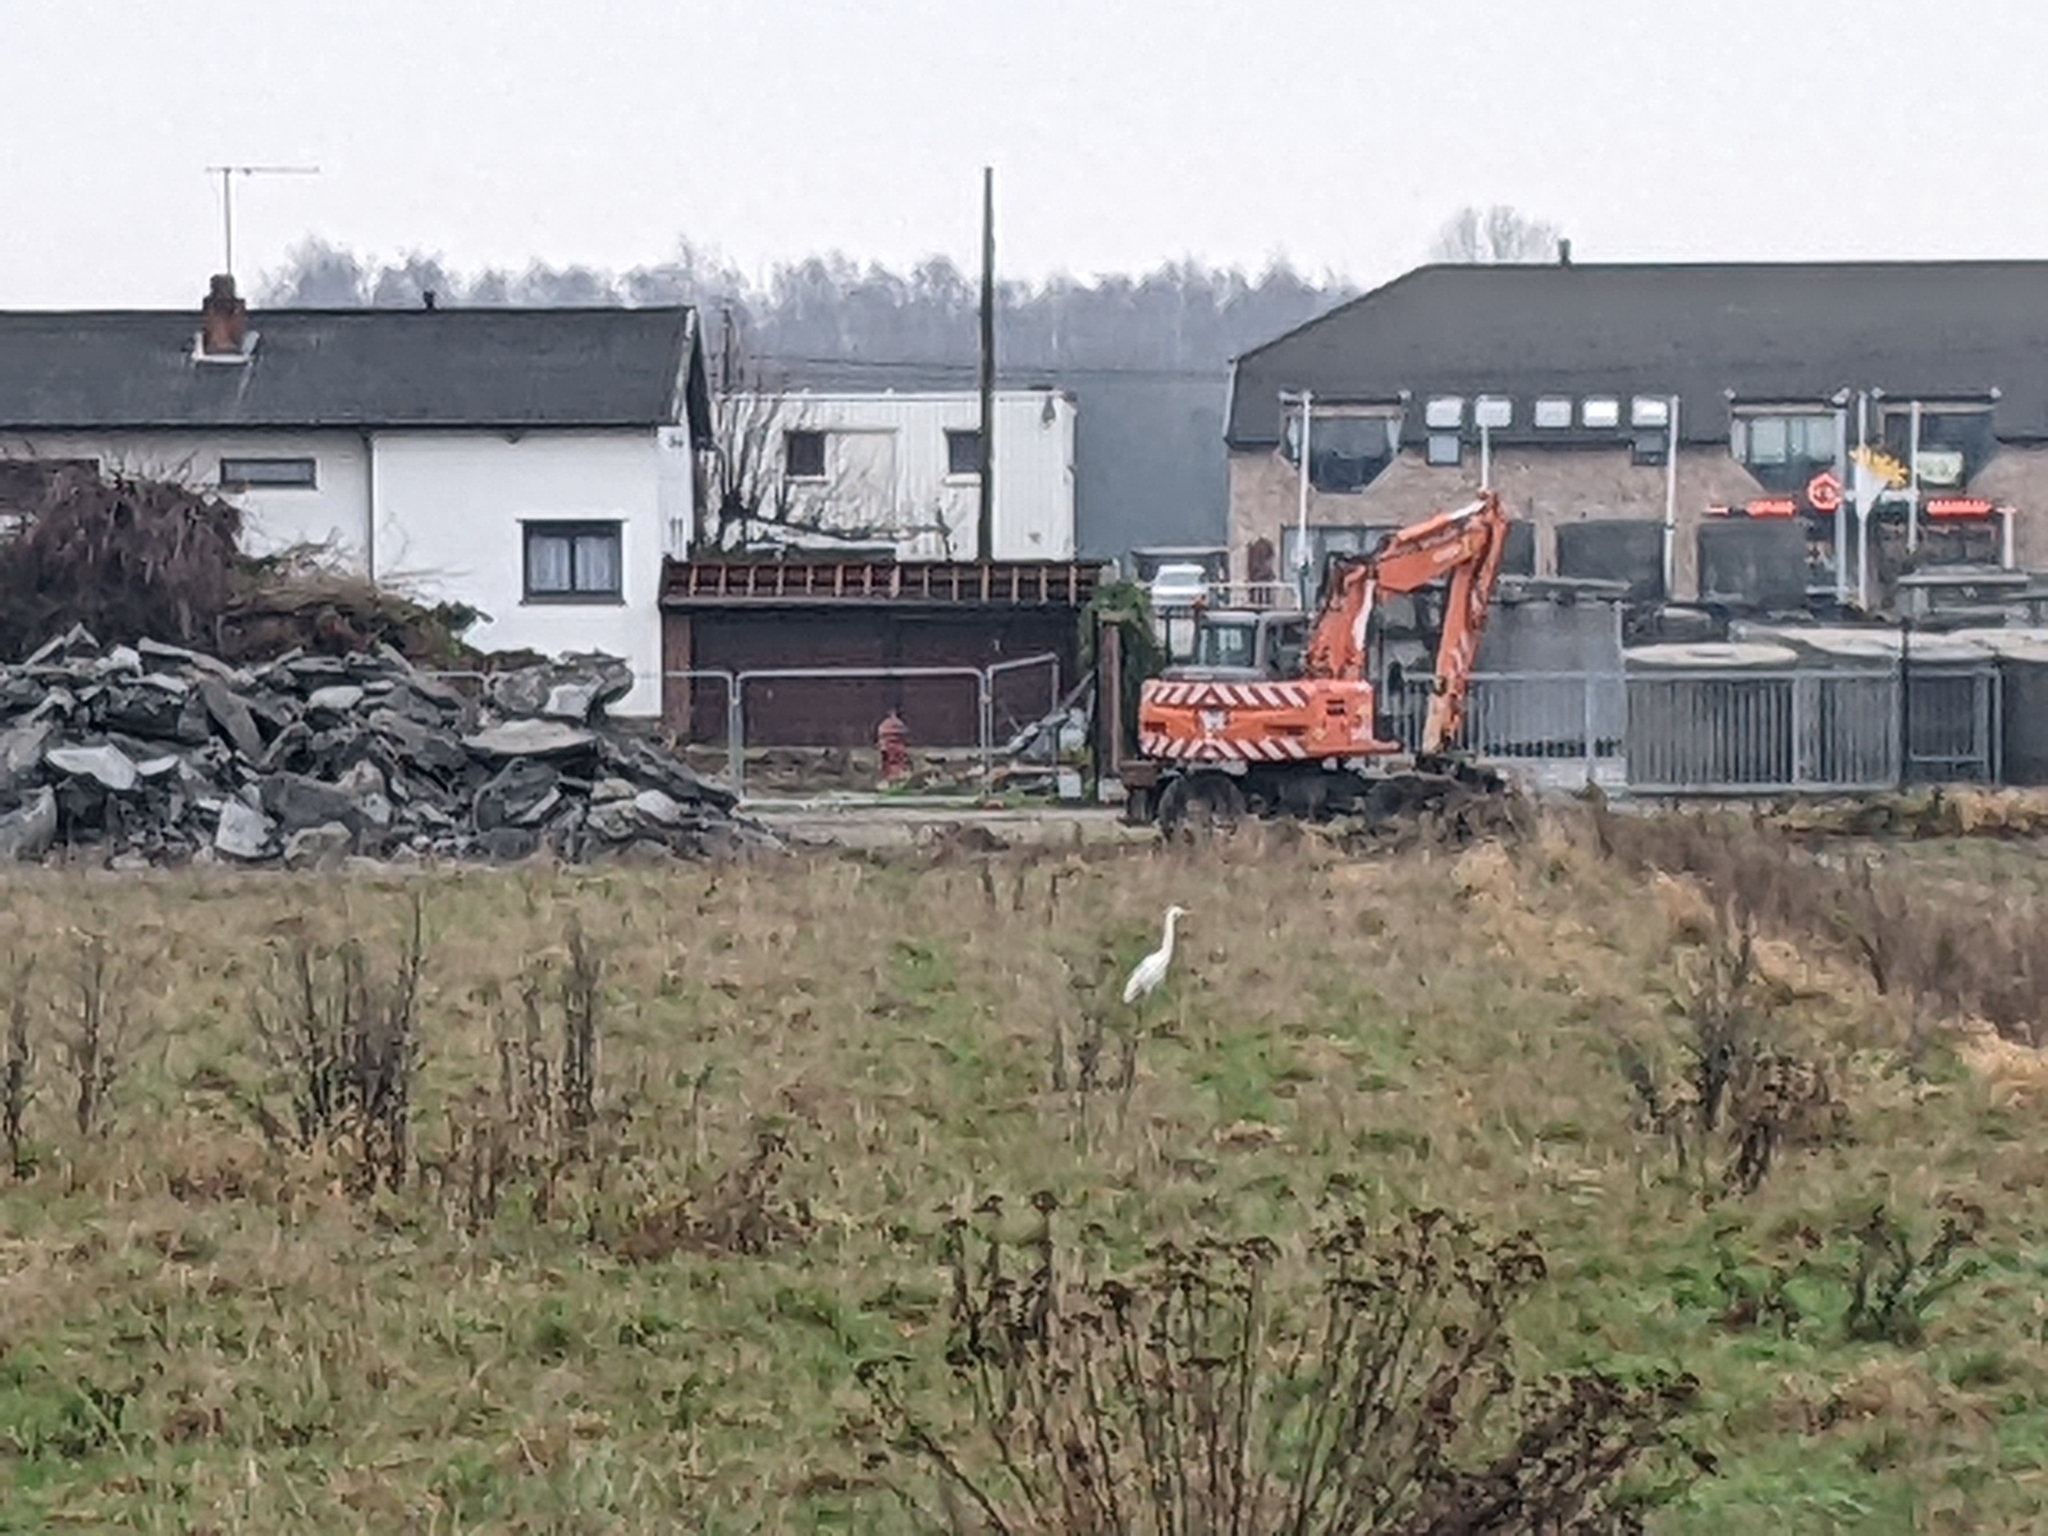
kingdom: Animalia
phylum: Chordata
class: Aves
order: Pelecaniformes
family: Ardeidae
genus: Ardea
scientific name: Ardea alba
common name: Great egret
